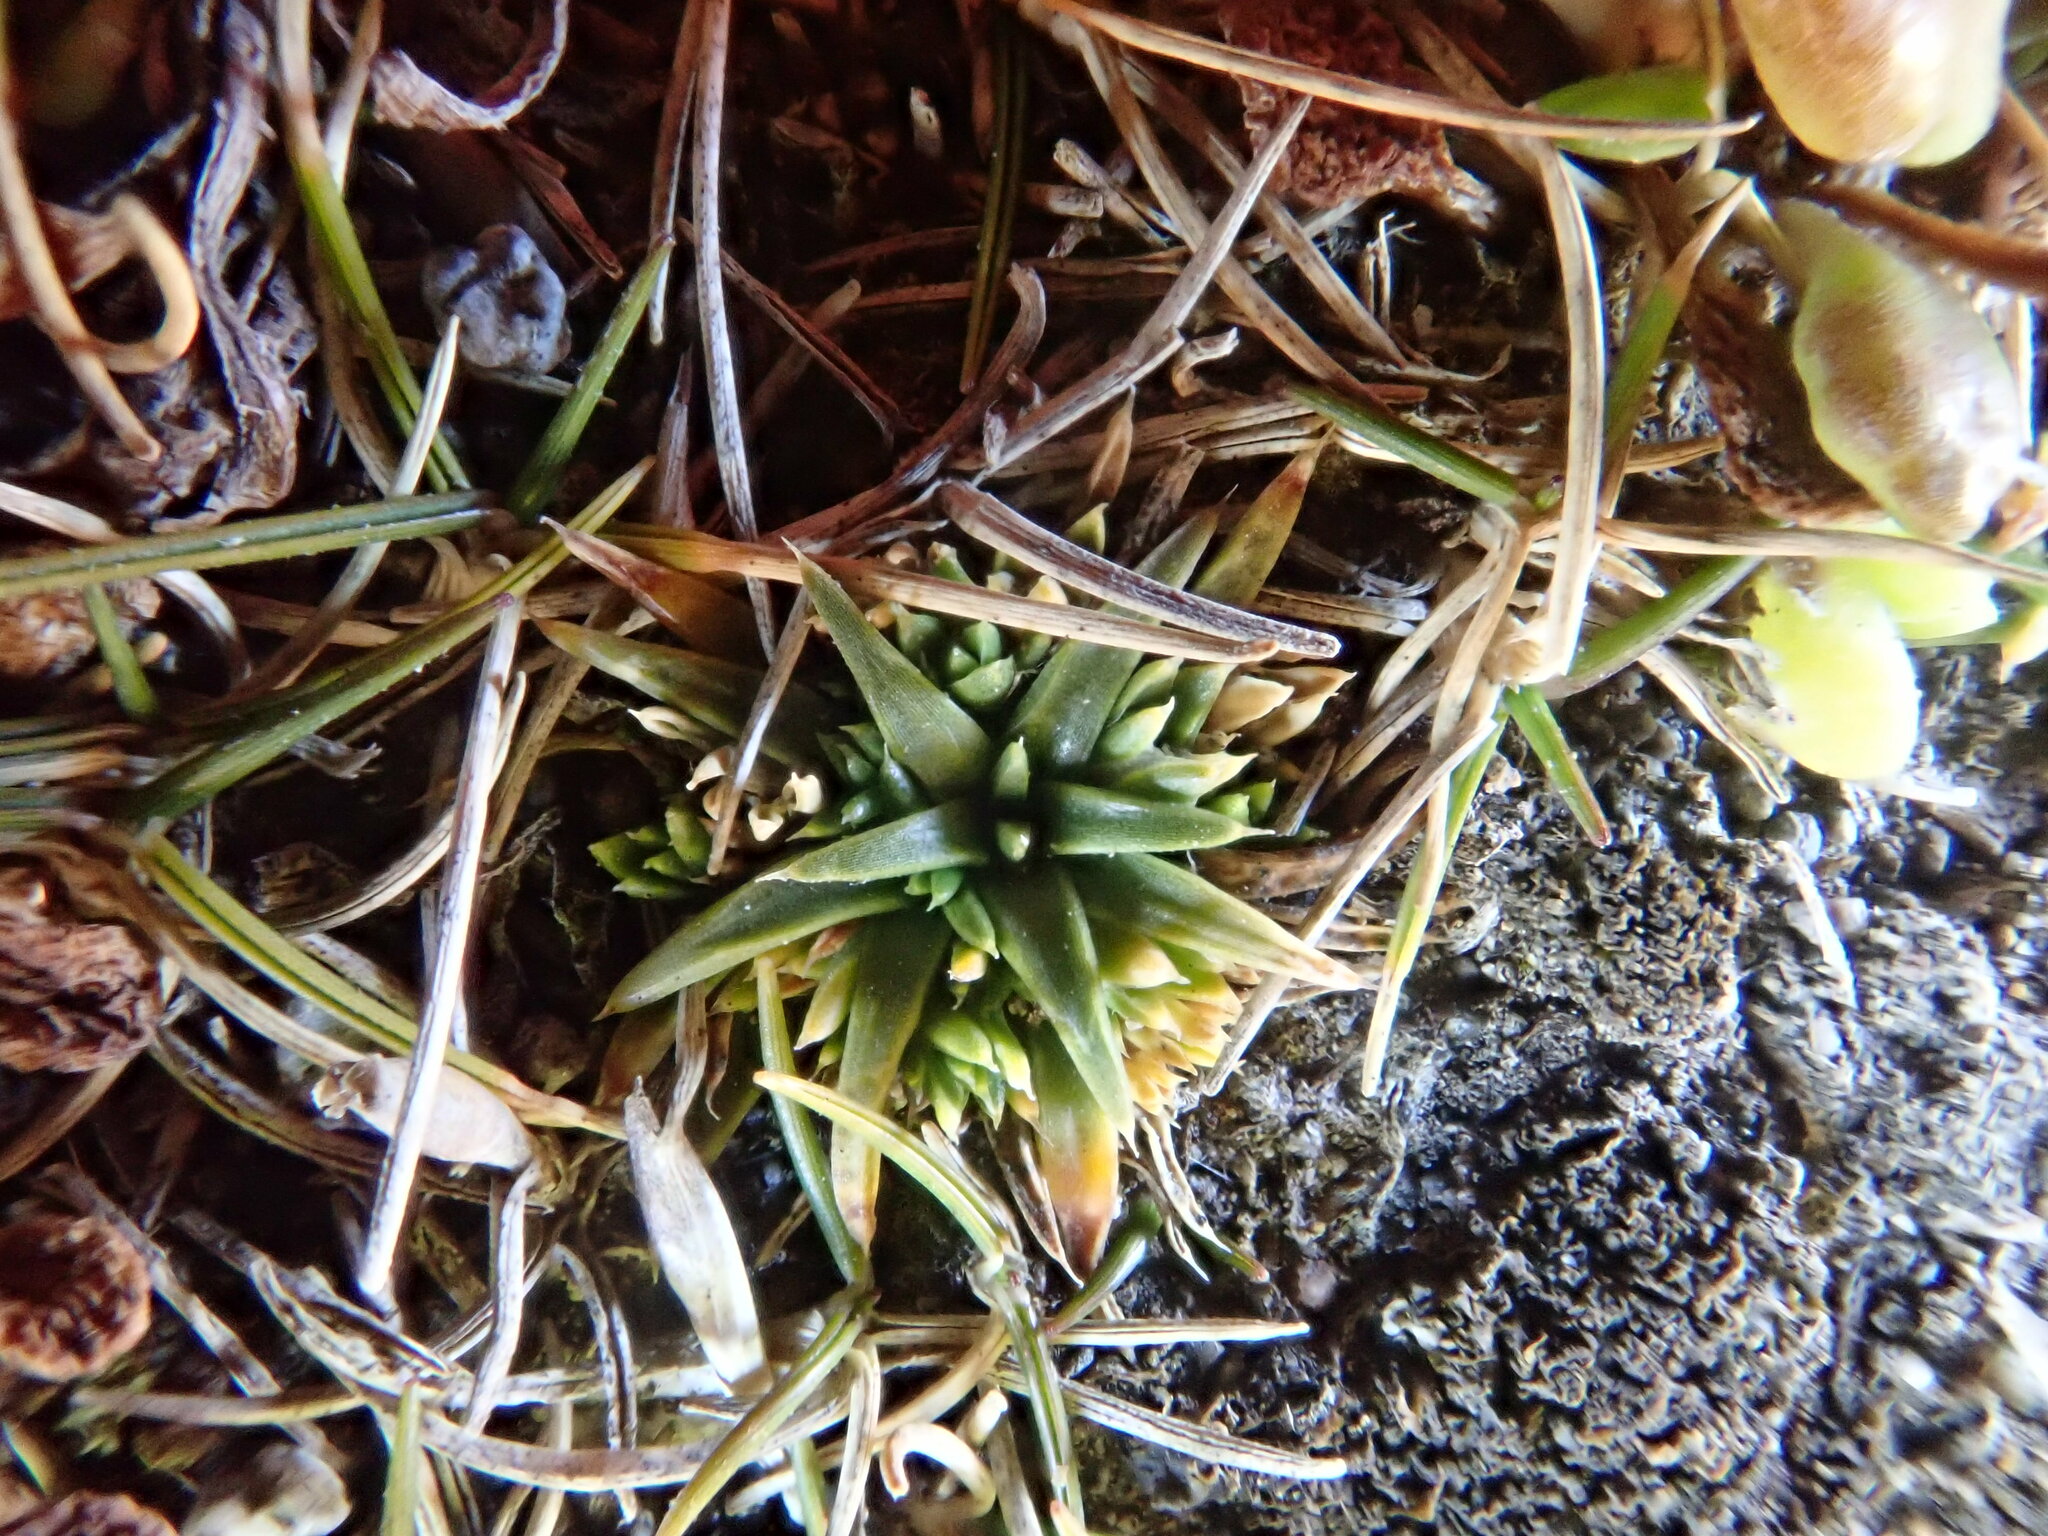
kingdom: Plantae
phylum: Tracheophyta
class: Magnoliopsida
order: Caryophyllales
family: Caryophyllaceae
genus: Colobanthus
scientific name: Colobanthus muelleri
